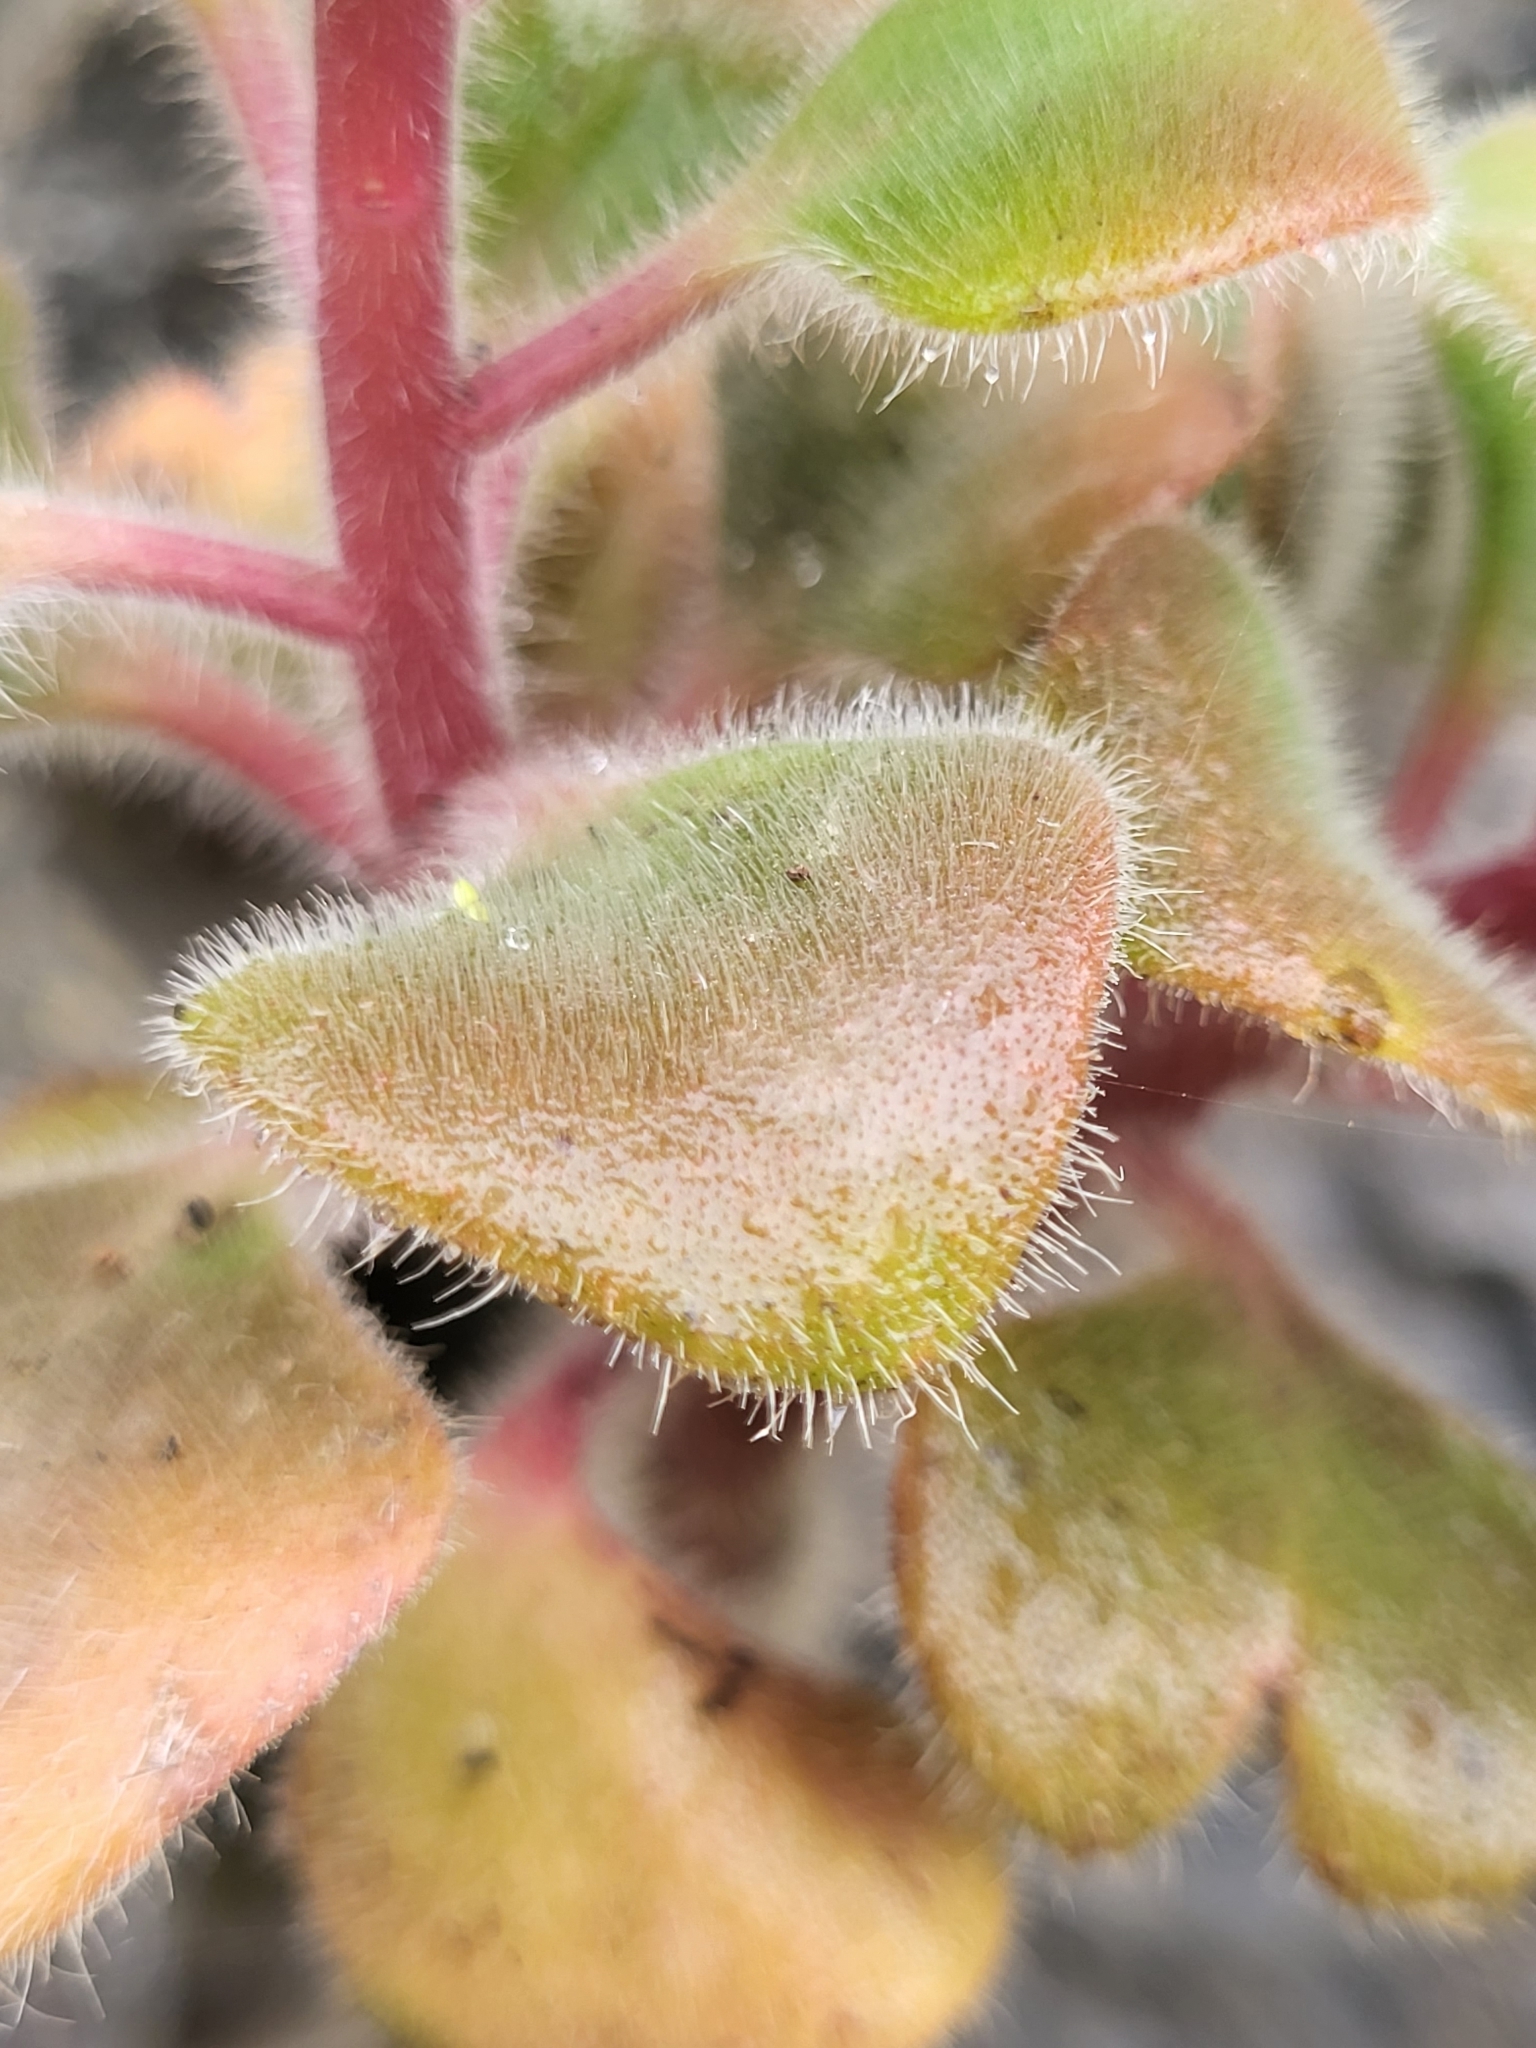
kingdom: Plantae
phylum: Tracheophyta
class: Magnoliopsida
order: Saxifragales
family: Crassulaceae
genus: Aichryson
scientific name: Aichryson laxum
